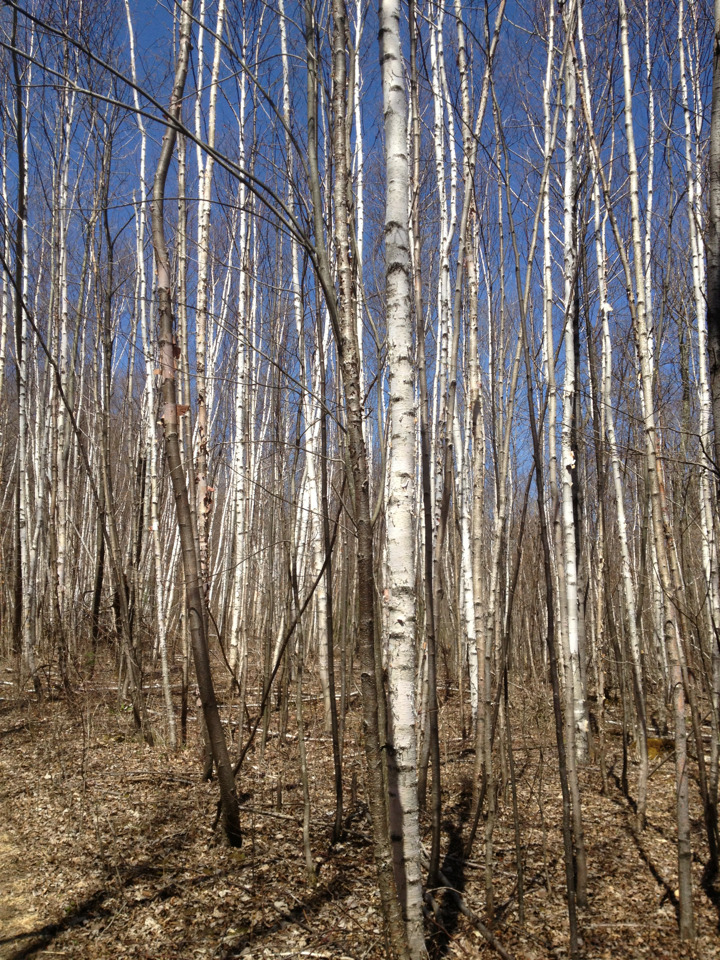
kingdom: Plantae
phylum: Tracheophyta
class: Magnoliopsida
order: Fagales
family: Betulaceae
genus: Betula
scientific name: Betula papyrifera
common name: Paper birch
